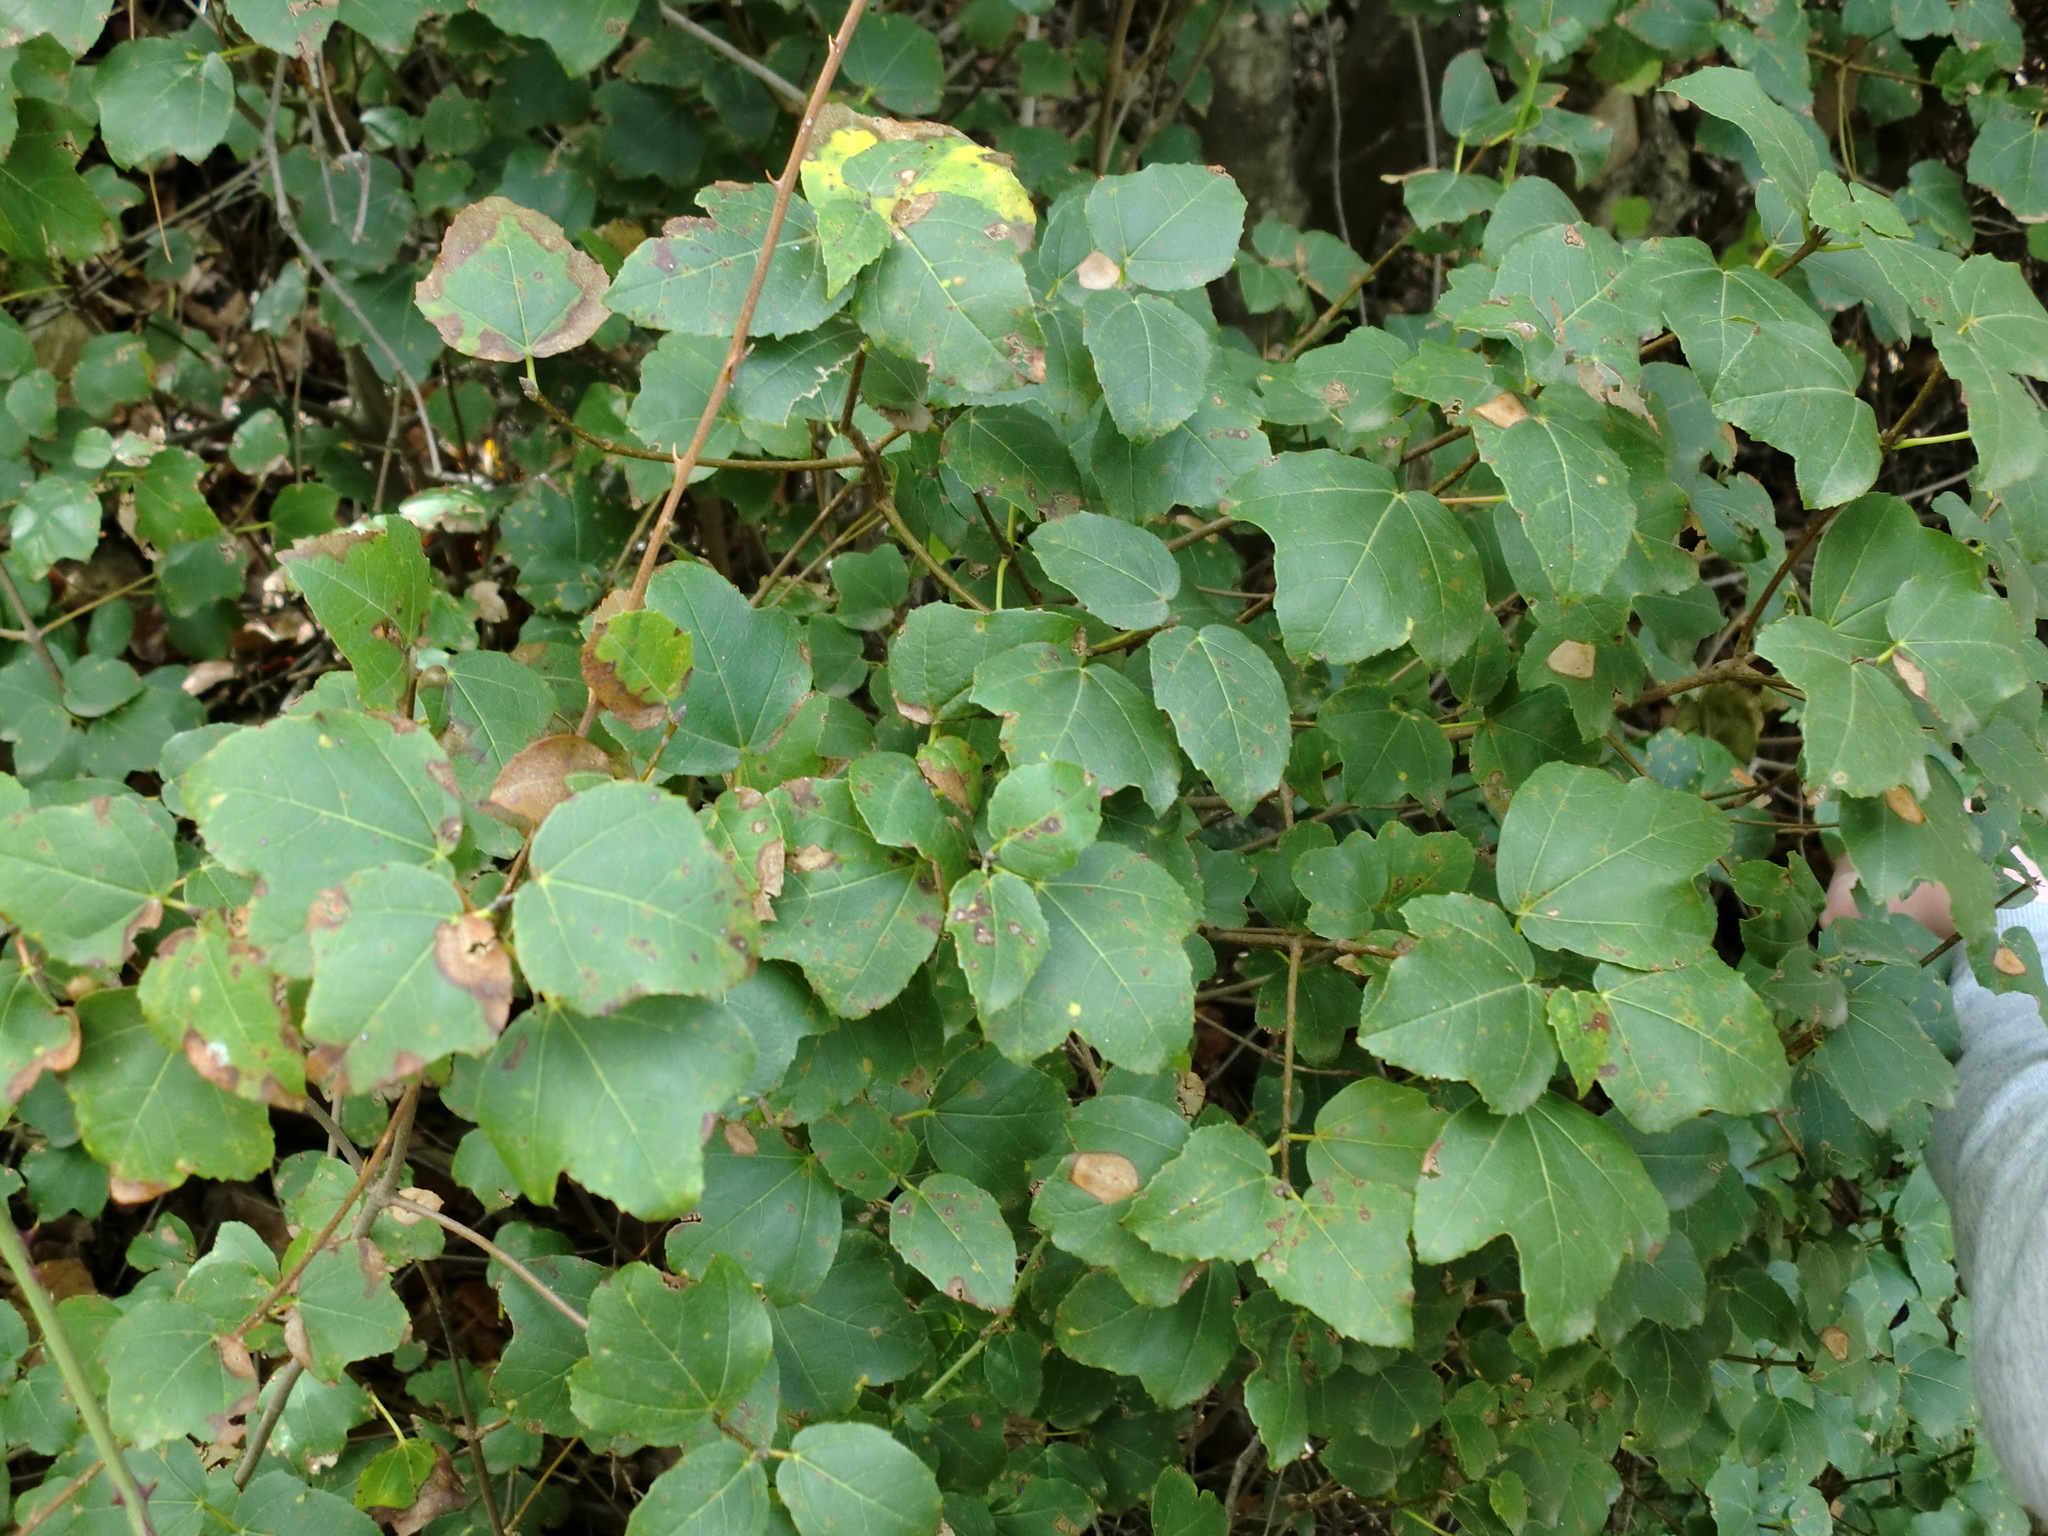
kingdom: Plantae
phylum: Tracheophyta
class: Magnoliopsida
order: Sapindales
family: Sapindaceae
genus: Acer
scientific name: Acer obtusifolium
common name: Cyprus maple
